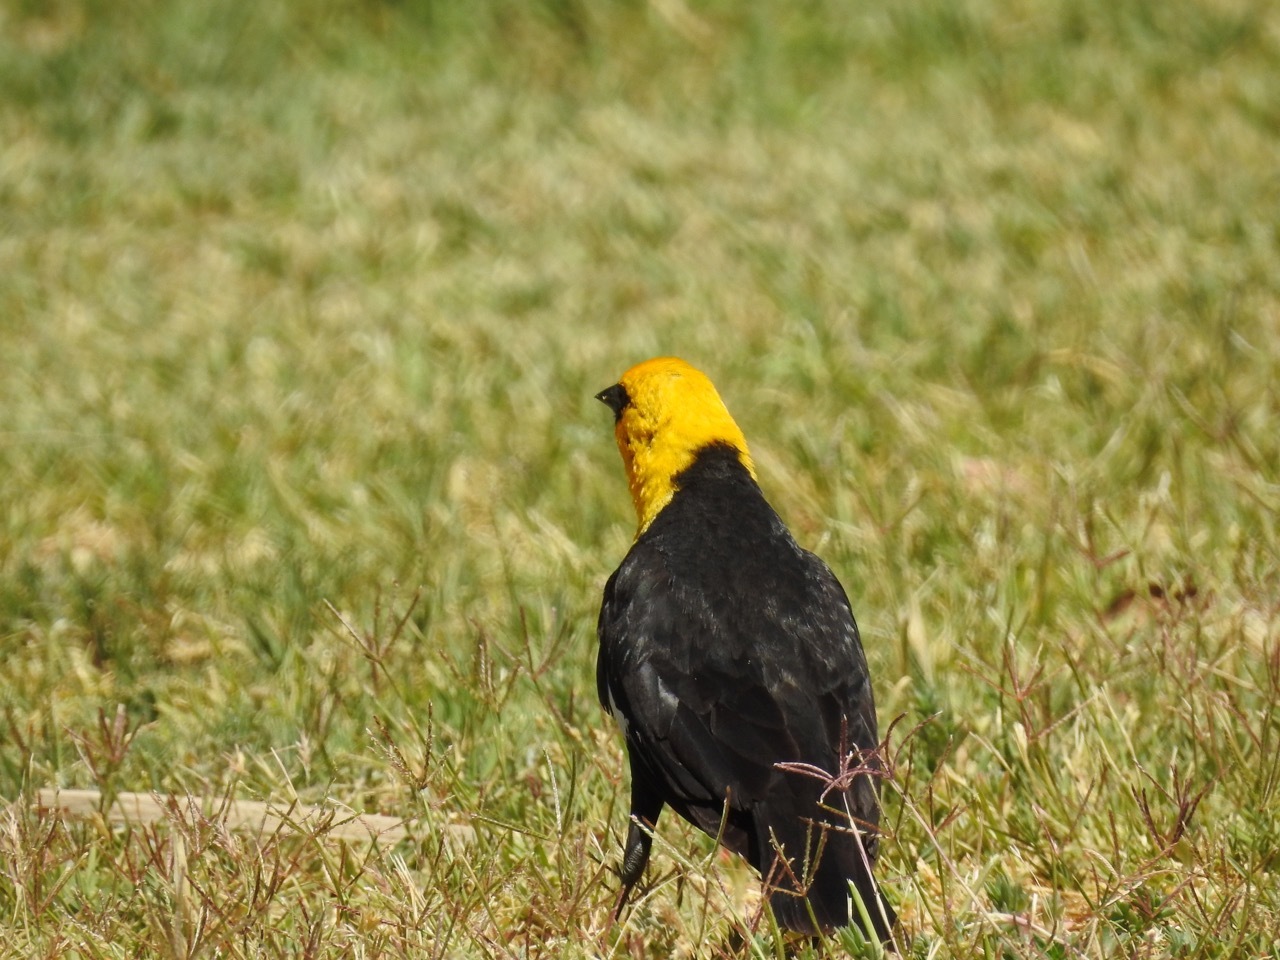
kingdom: Animalia
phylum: Chordata
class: Aves
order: Passeriformes
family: Icteridae
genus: Xanthocephalus
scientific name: Xanthocephalus xanthocephalus
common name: Yellow-headed blackbird
